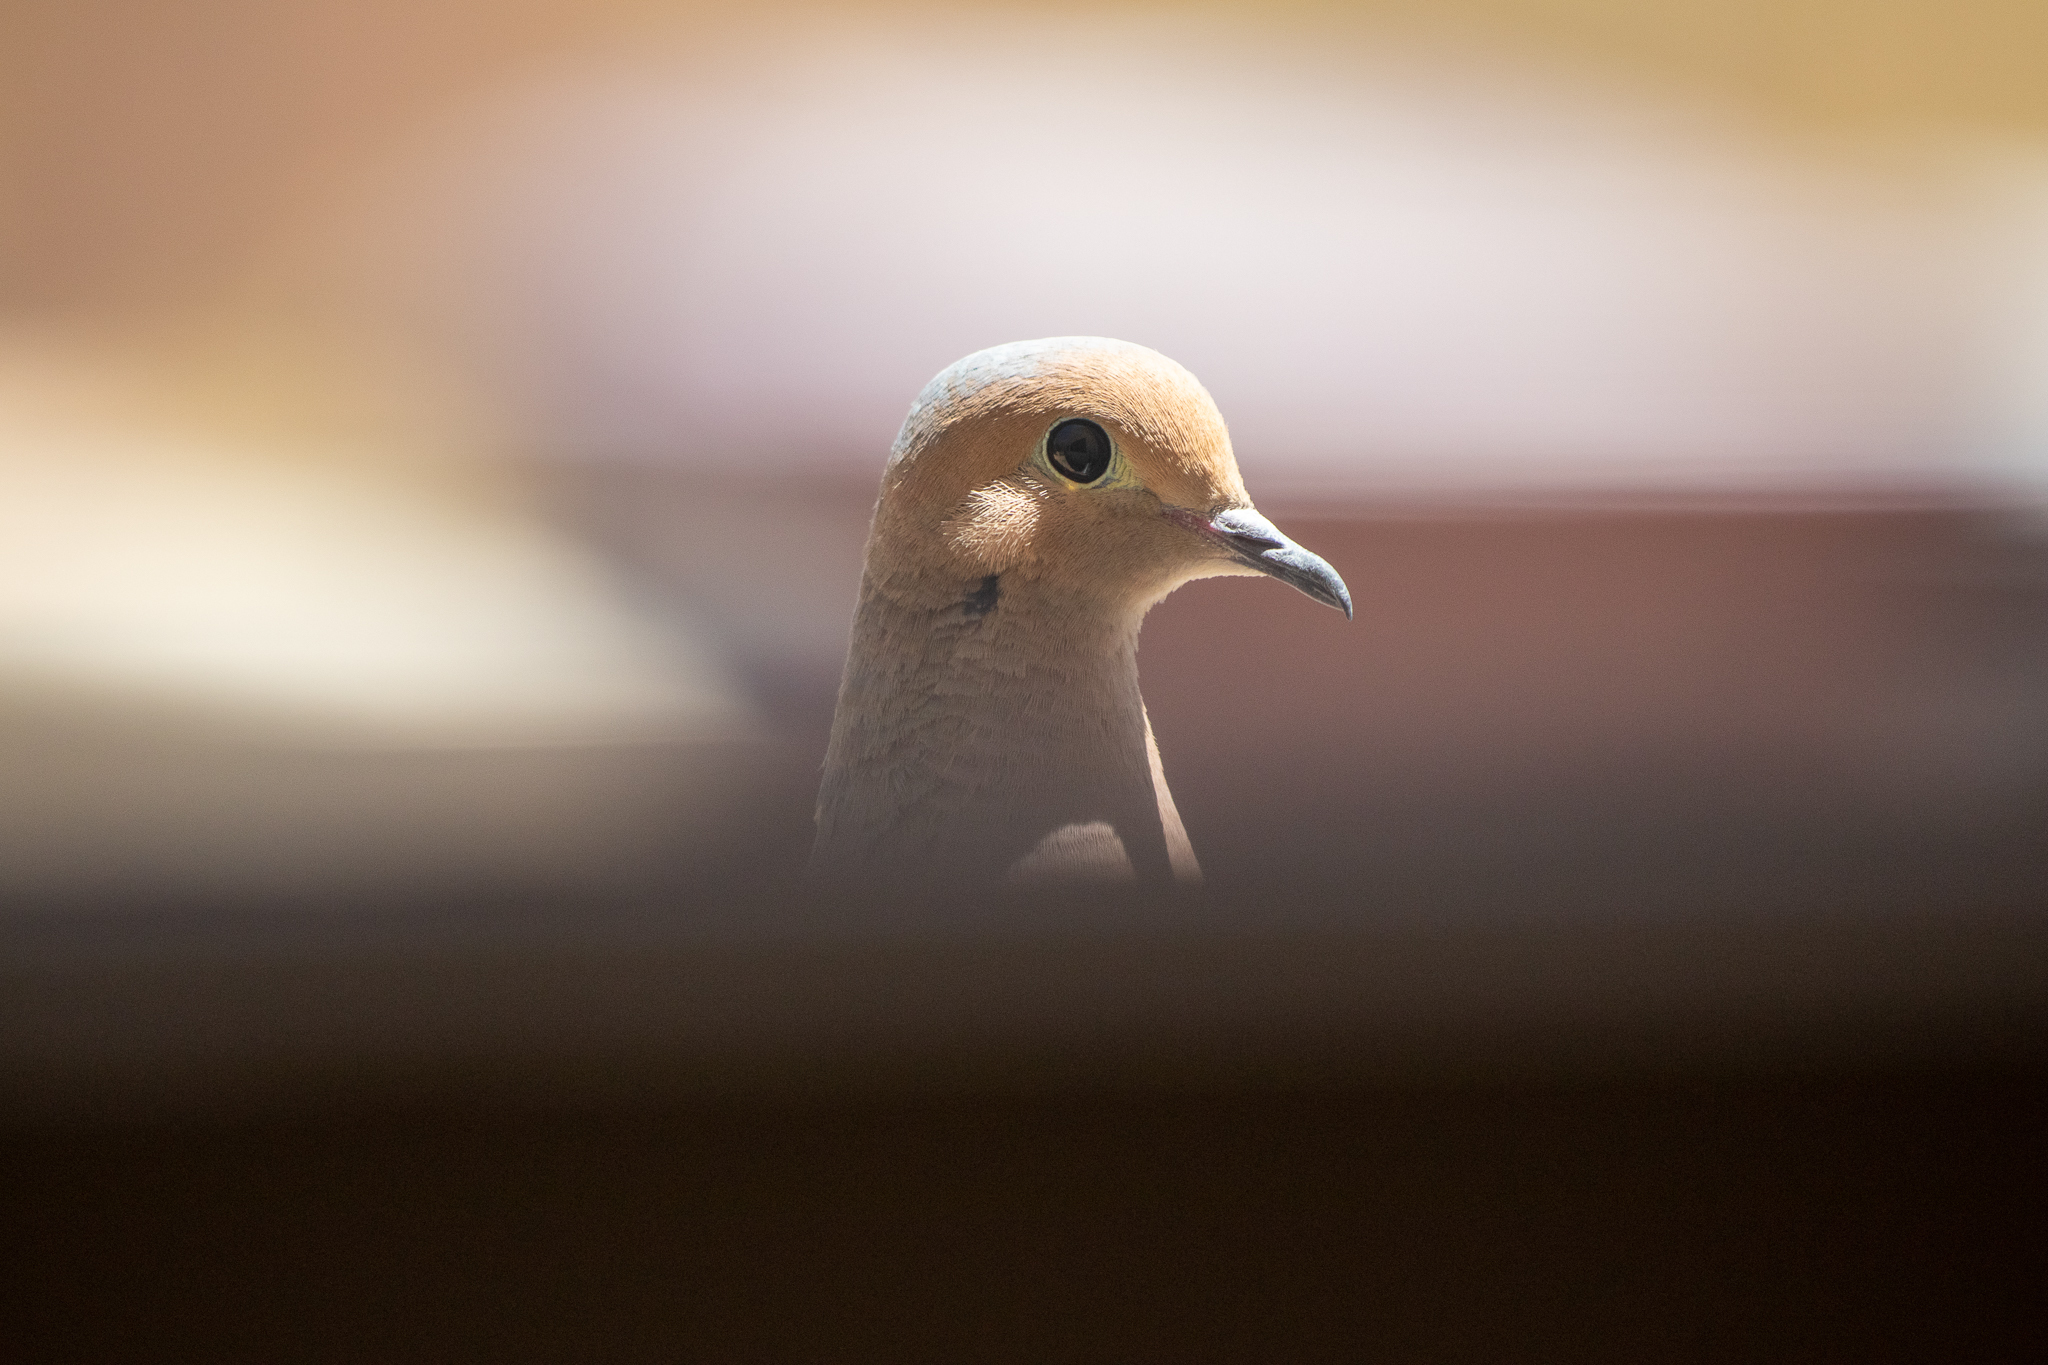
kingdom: Animalia
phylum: Chordata
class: Aves
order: Columbiformes
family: Columbidae
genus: Zenaida
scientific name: Zenaida macroura
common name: Mourning dove
